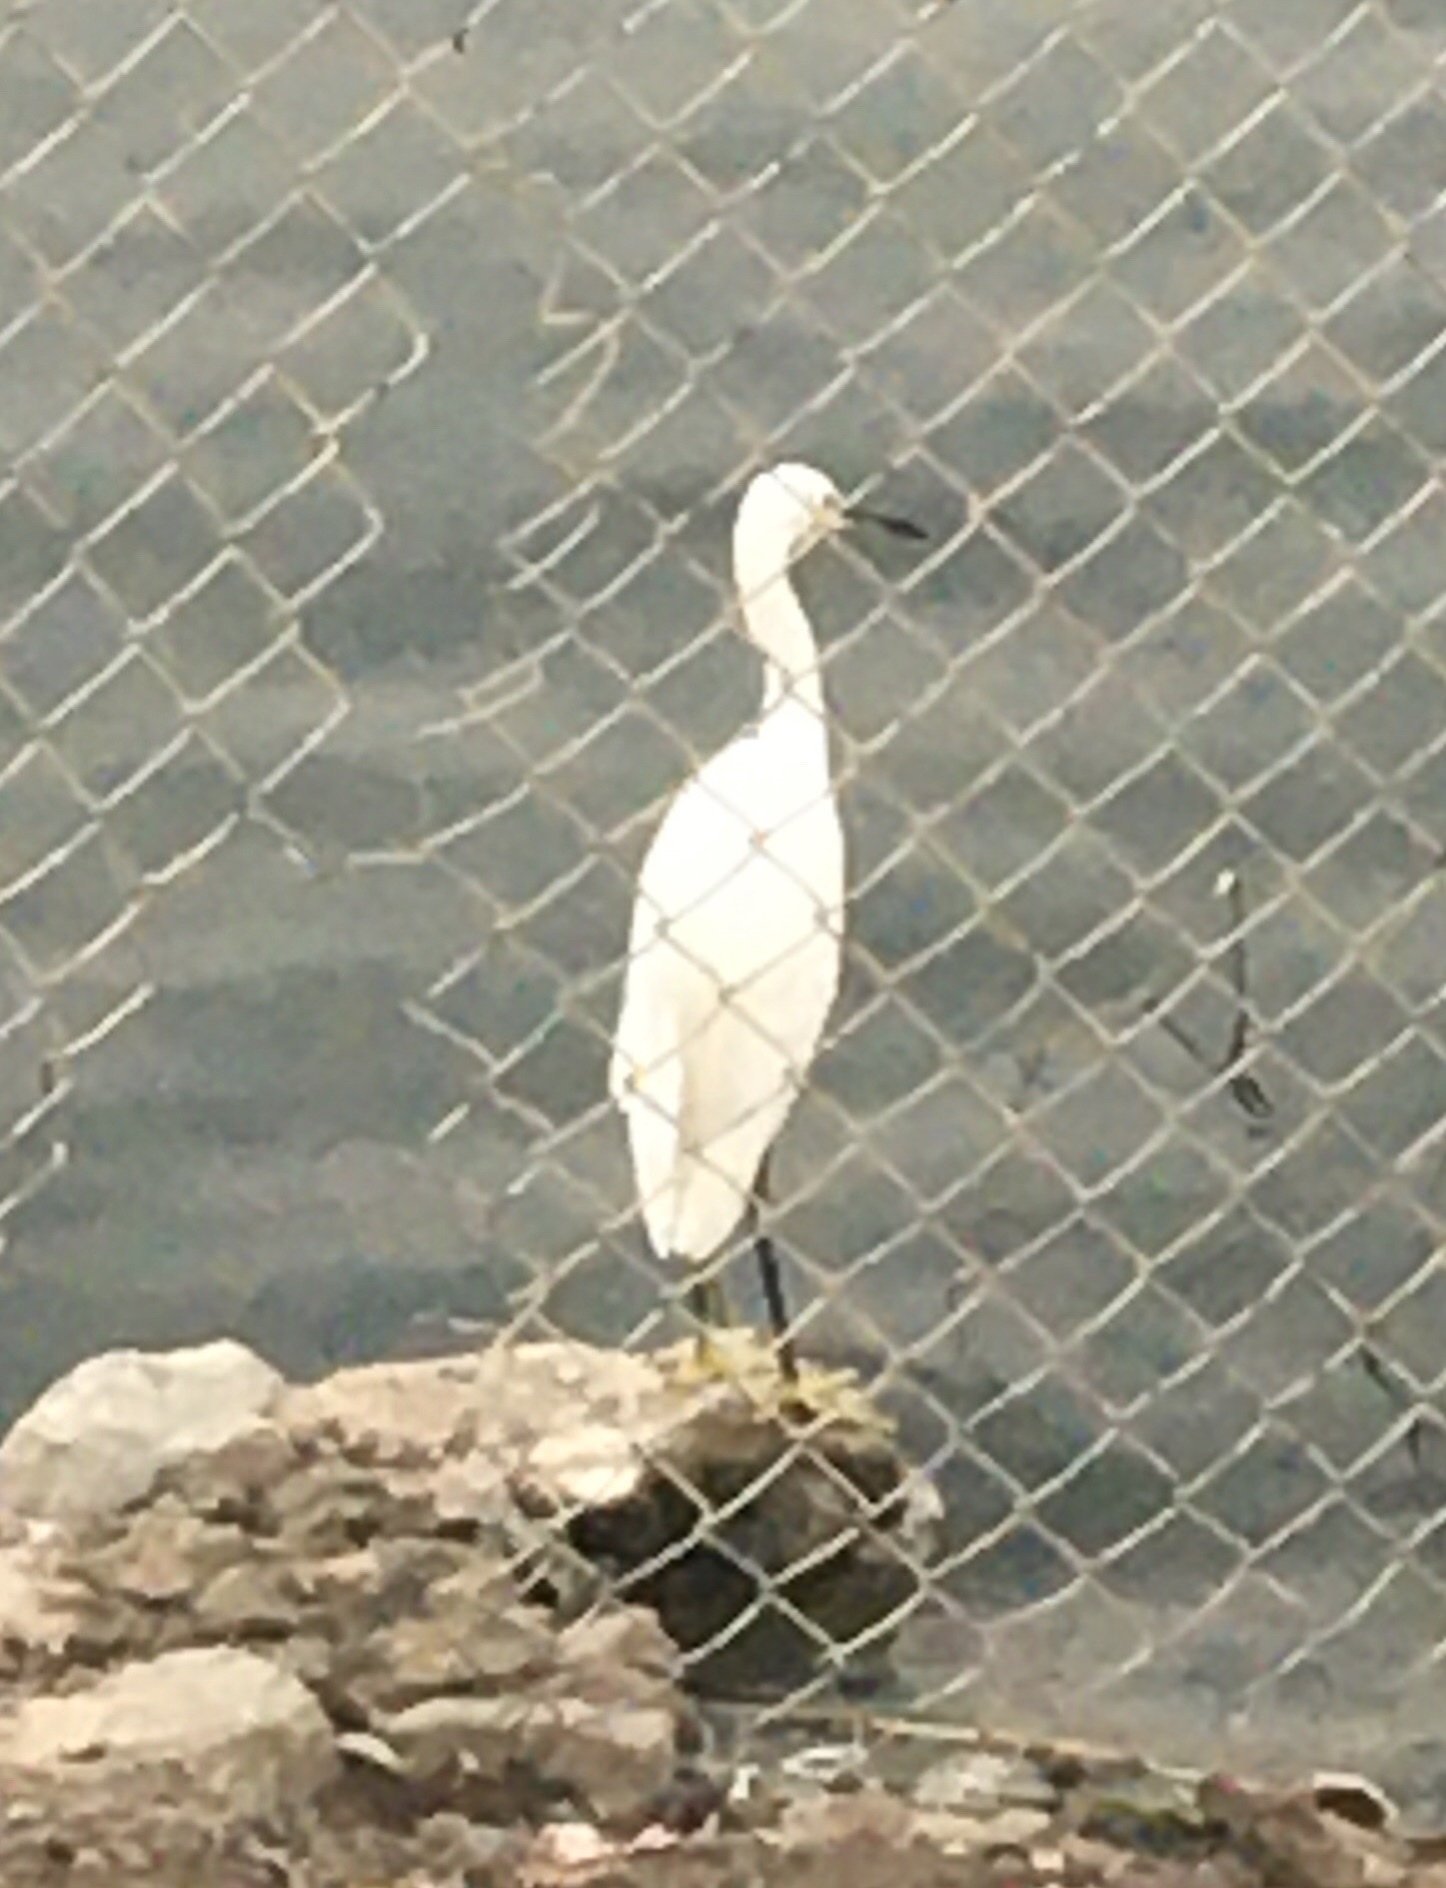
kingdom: Animalia
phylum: Chordata
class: Aves
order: Pelecaniformes
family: Ardeidae
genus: Egretta
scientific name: Egretta garzetta
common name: Little egret
